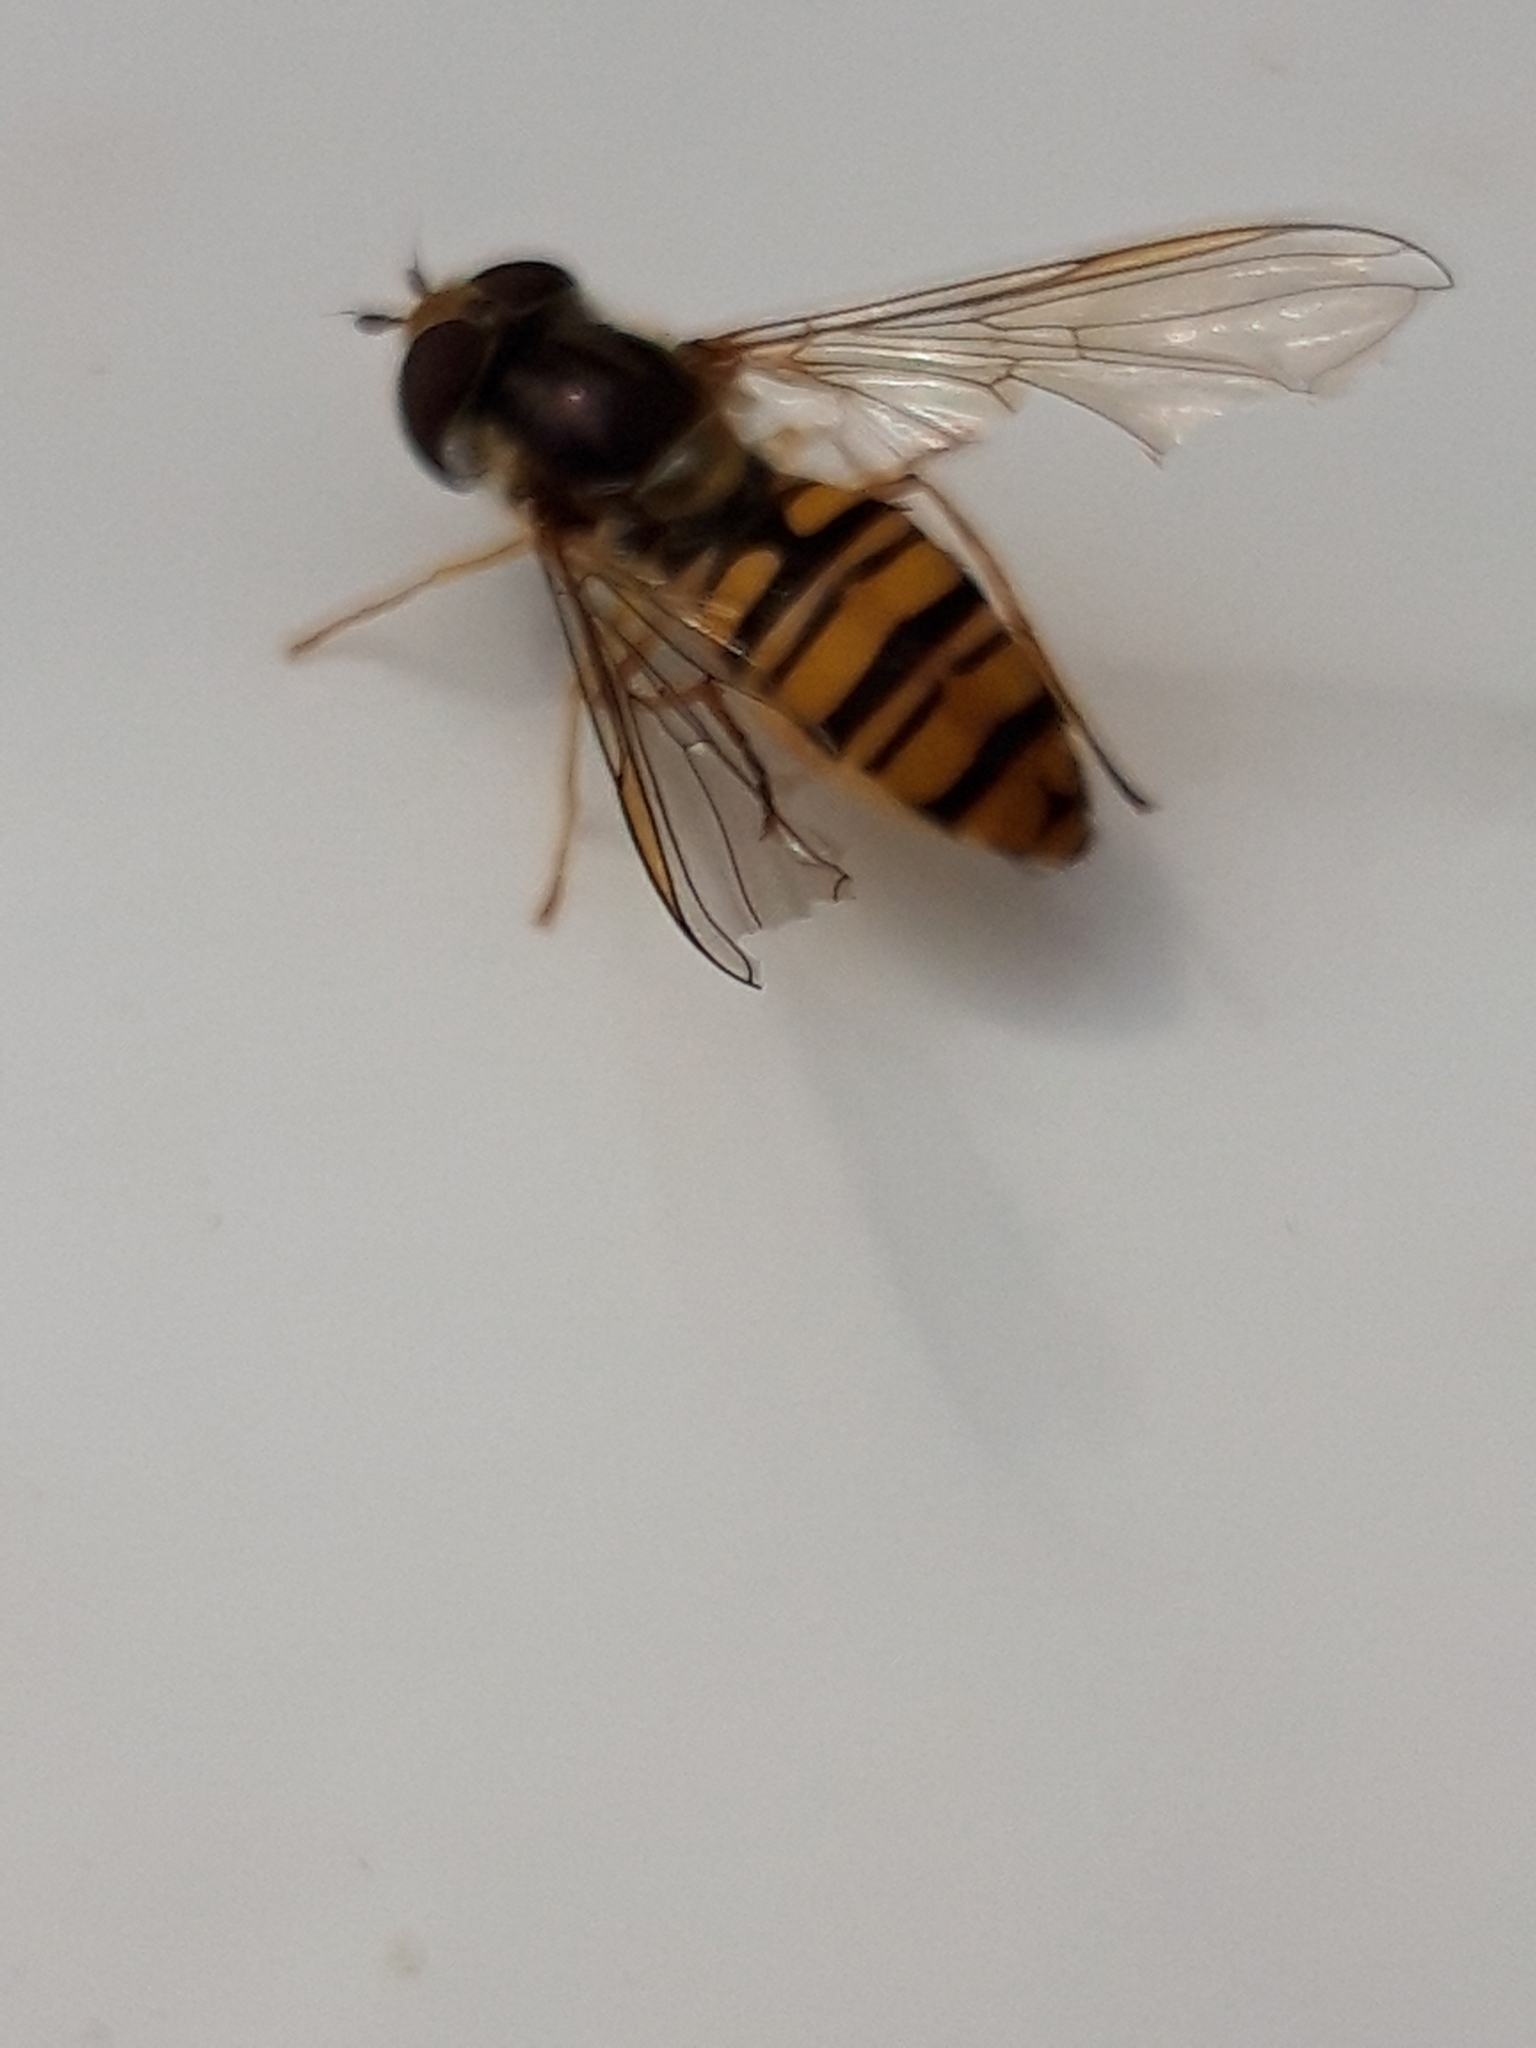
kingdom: Animalia
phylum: Arthropoda
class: Insecta
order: Diptera
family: Syrphidae
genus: Episyrphus
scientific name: Episyrphus balteatus
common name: Marmalade hoverfly
